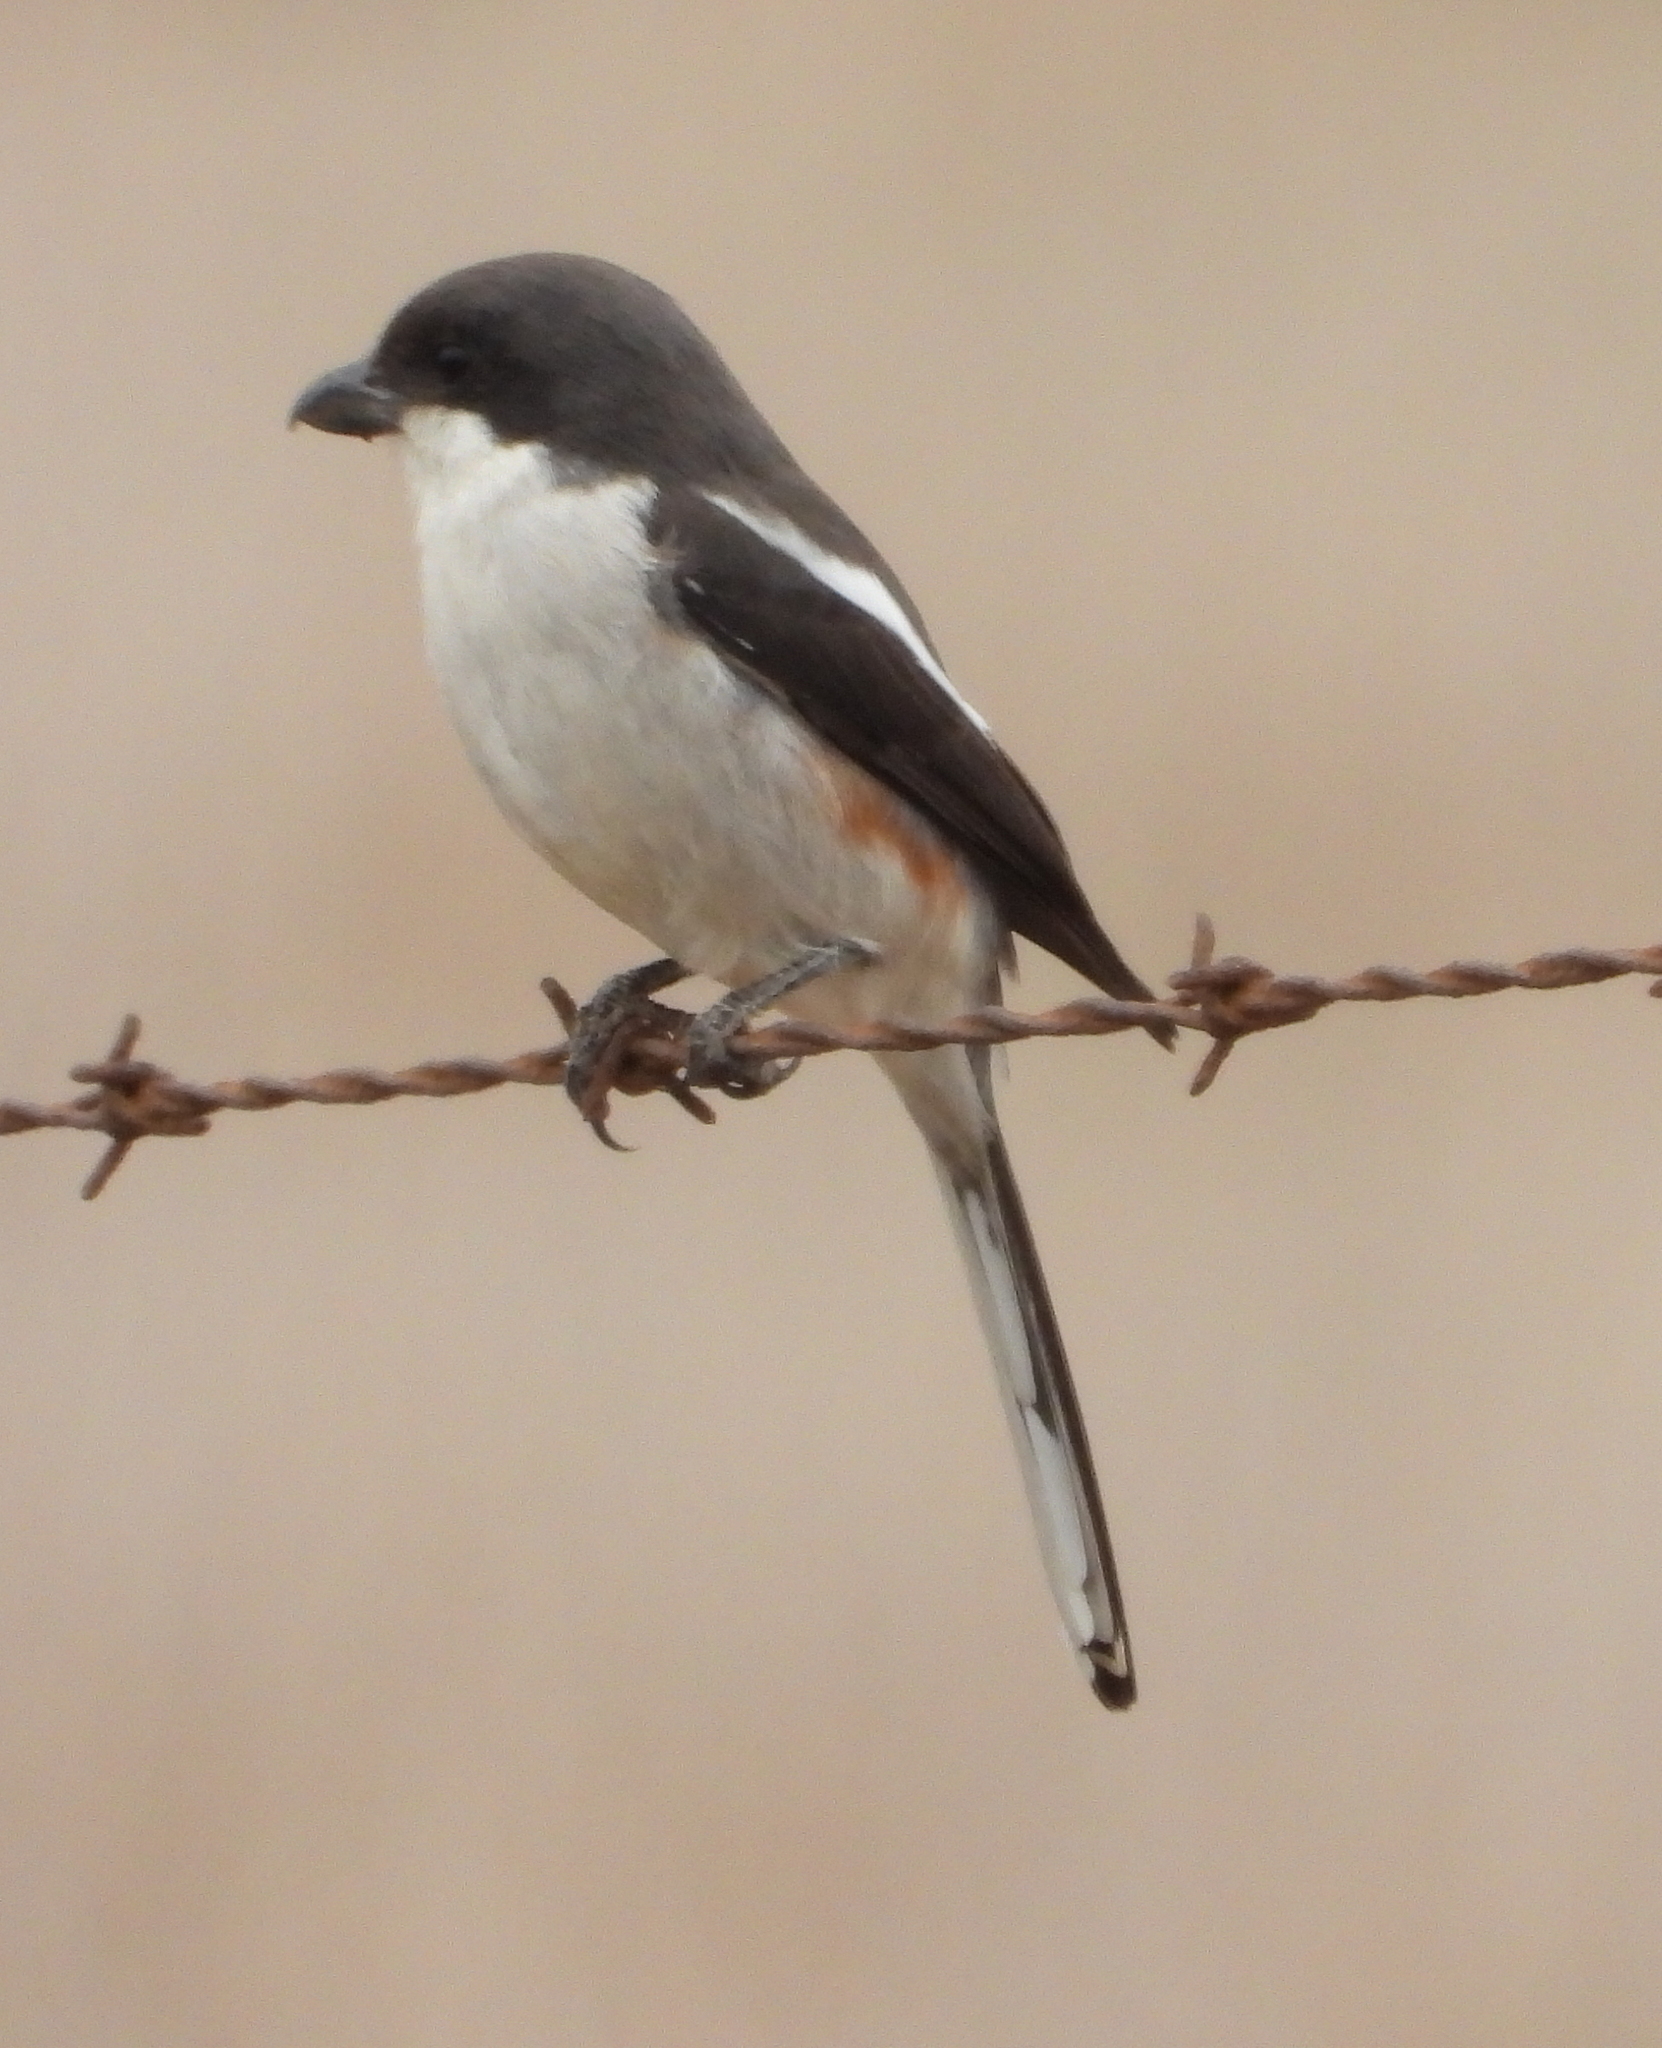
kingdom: Animalia
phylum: Chordata
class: Aves
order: Passeriformes
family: Laniidae
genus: Lanius
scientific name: Lanius collaris
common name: Southern fiscal
